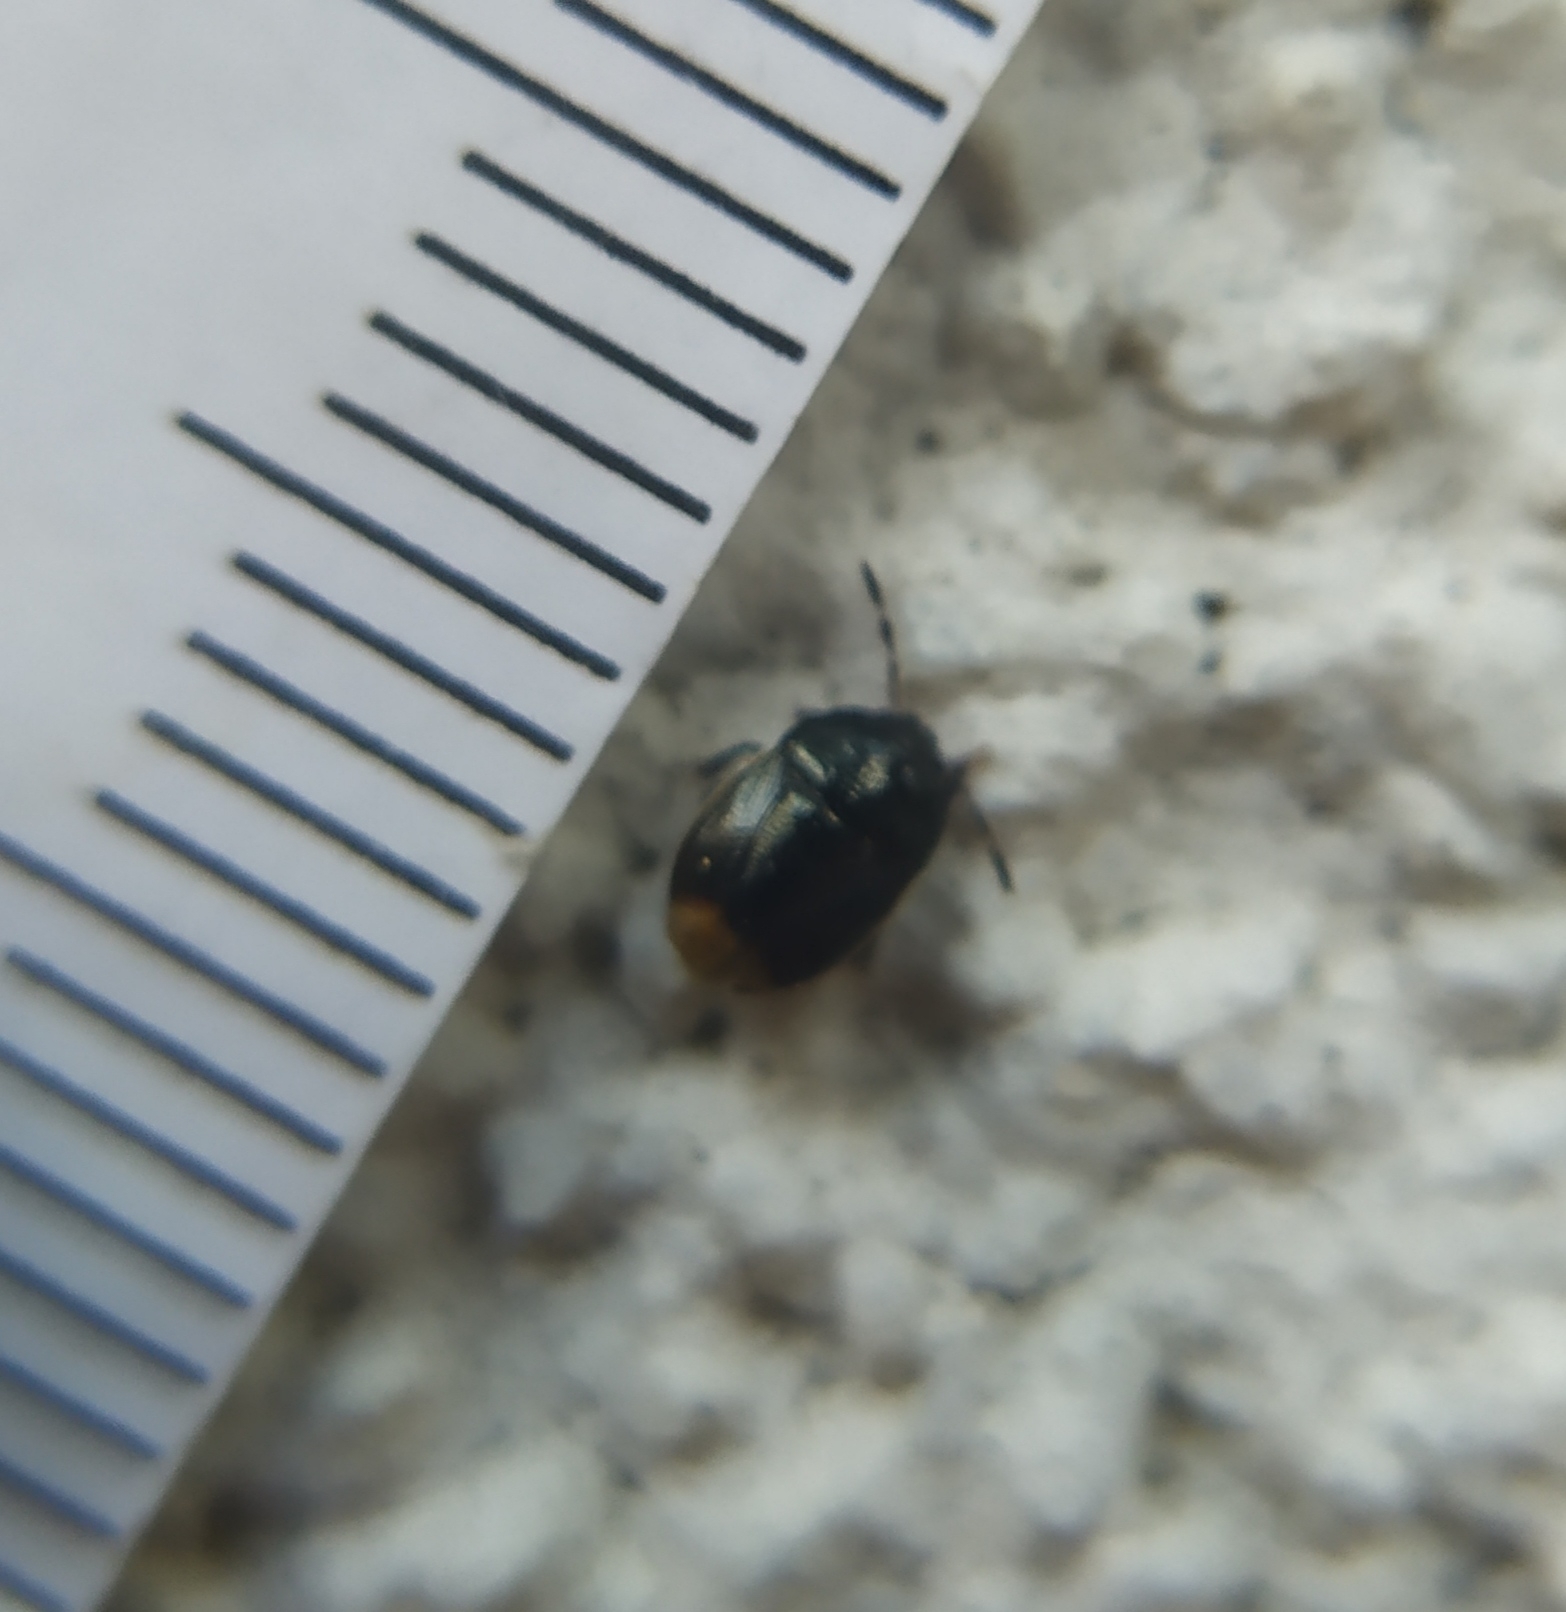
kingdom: Animalia
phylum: Arthropoda
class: Insecta
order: Hemiptera
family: Cydnidae
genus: Legnotus
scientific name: Legnotus limbosus
